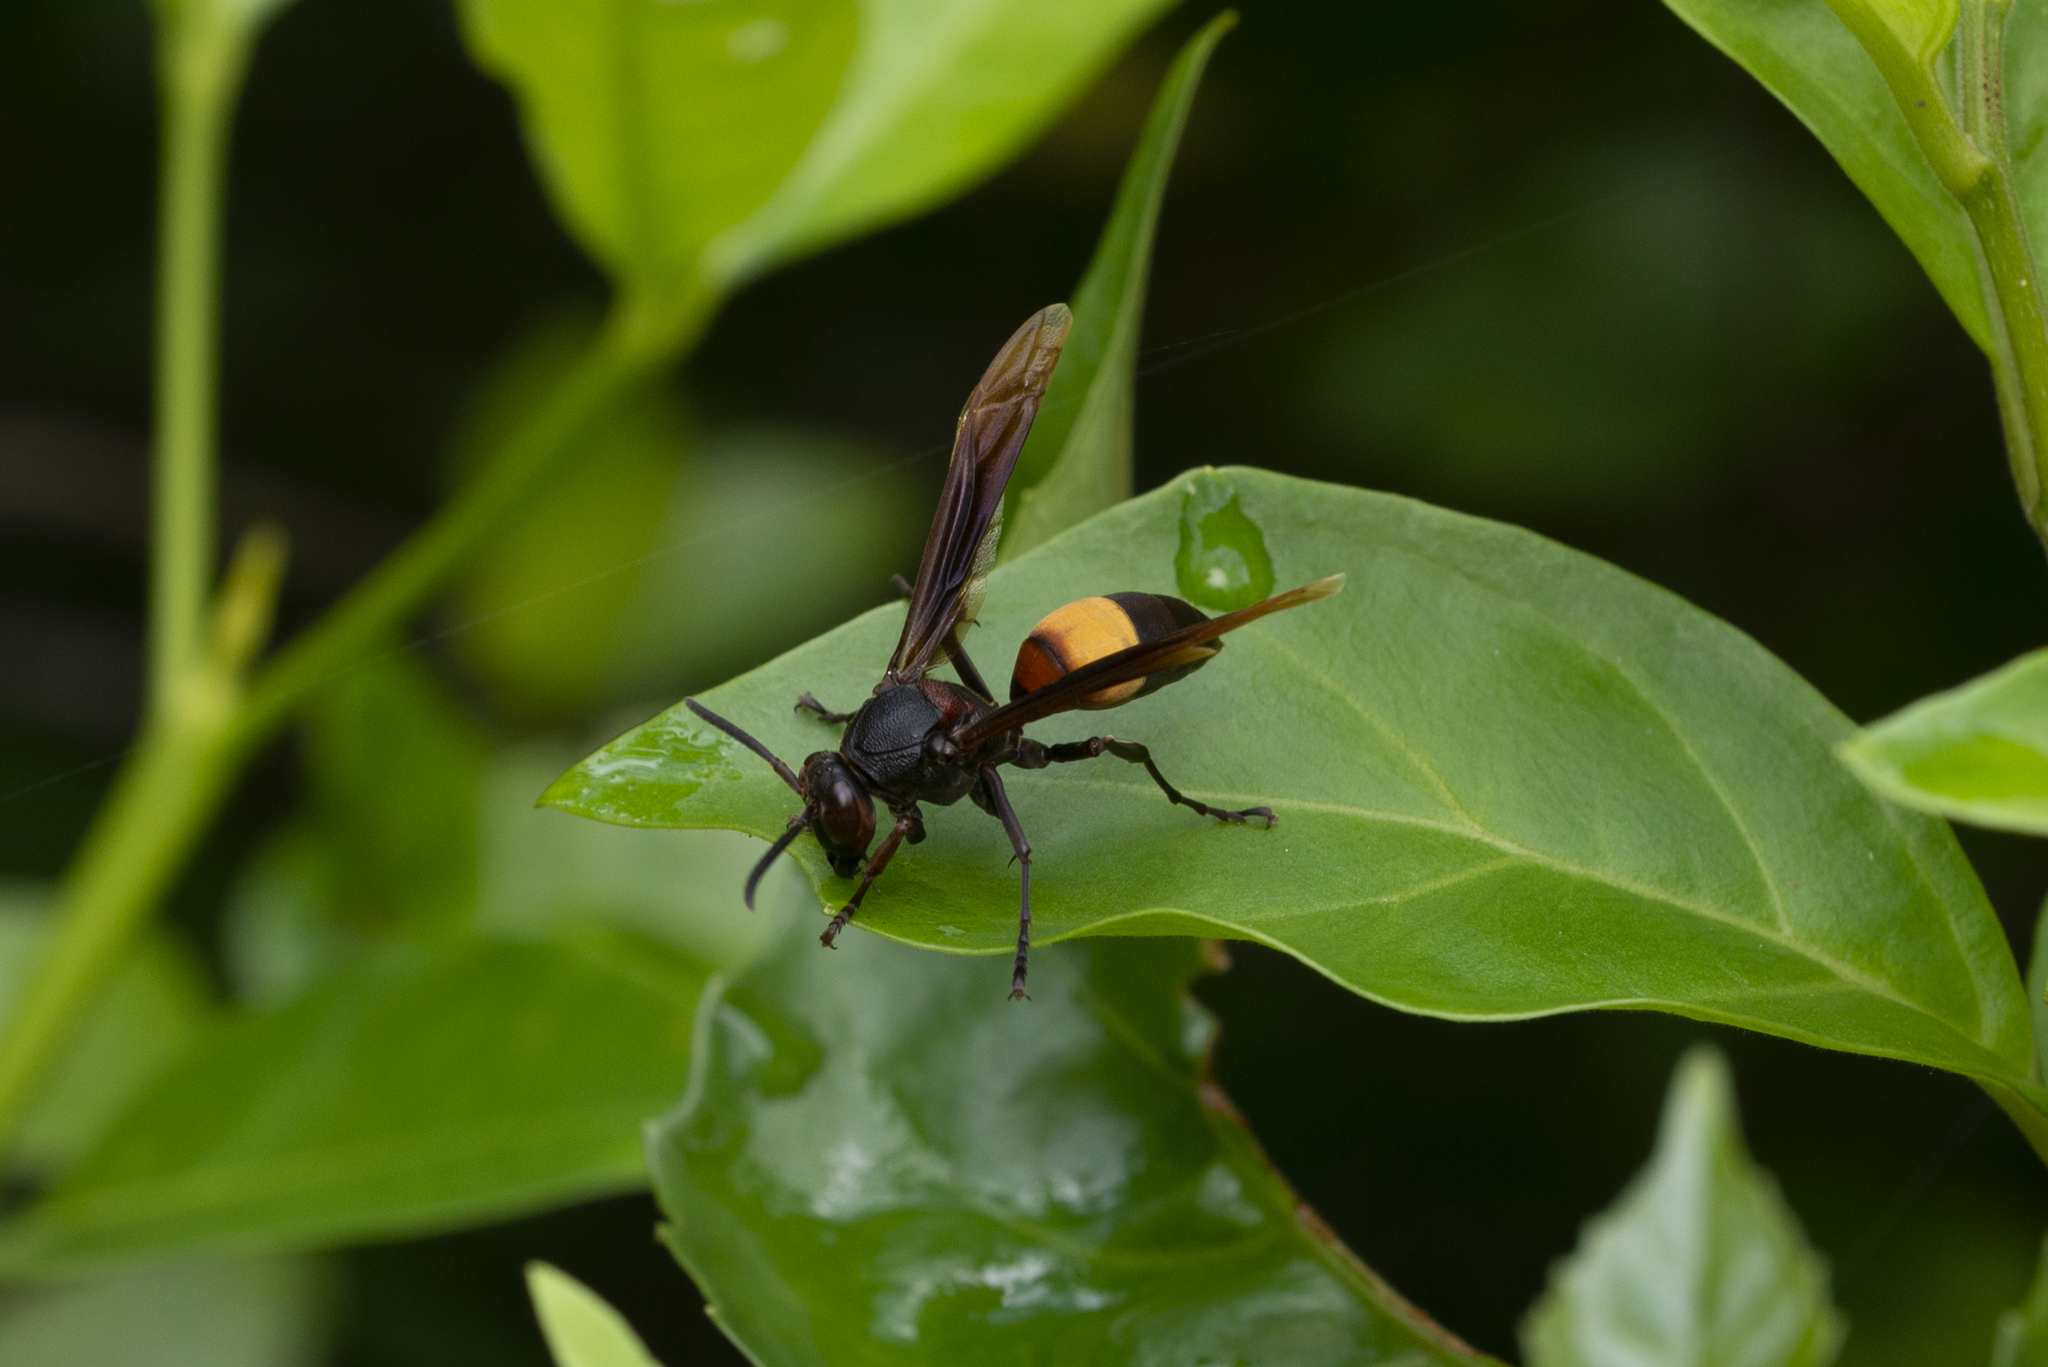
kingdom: Animalia
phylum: Arthropoda
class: Insecta
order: Hymenoptera
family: Eumenidae
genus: Polistes
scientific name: Polistes sagittarius
